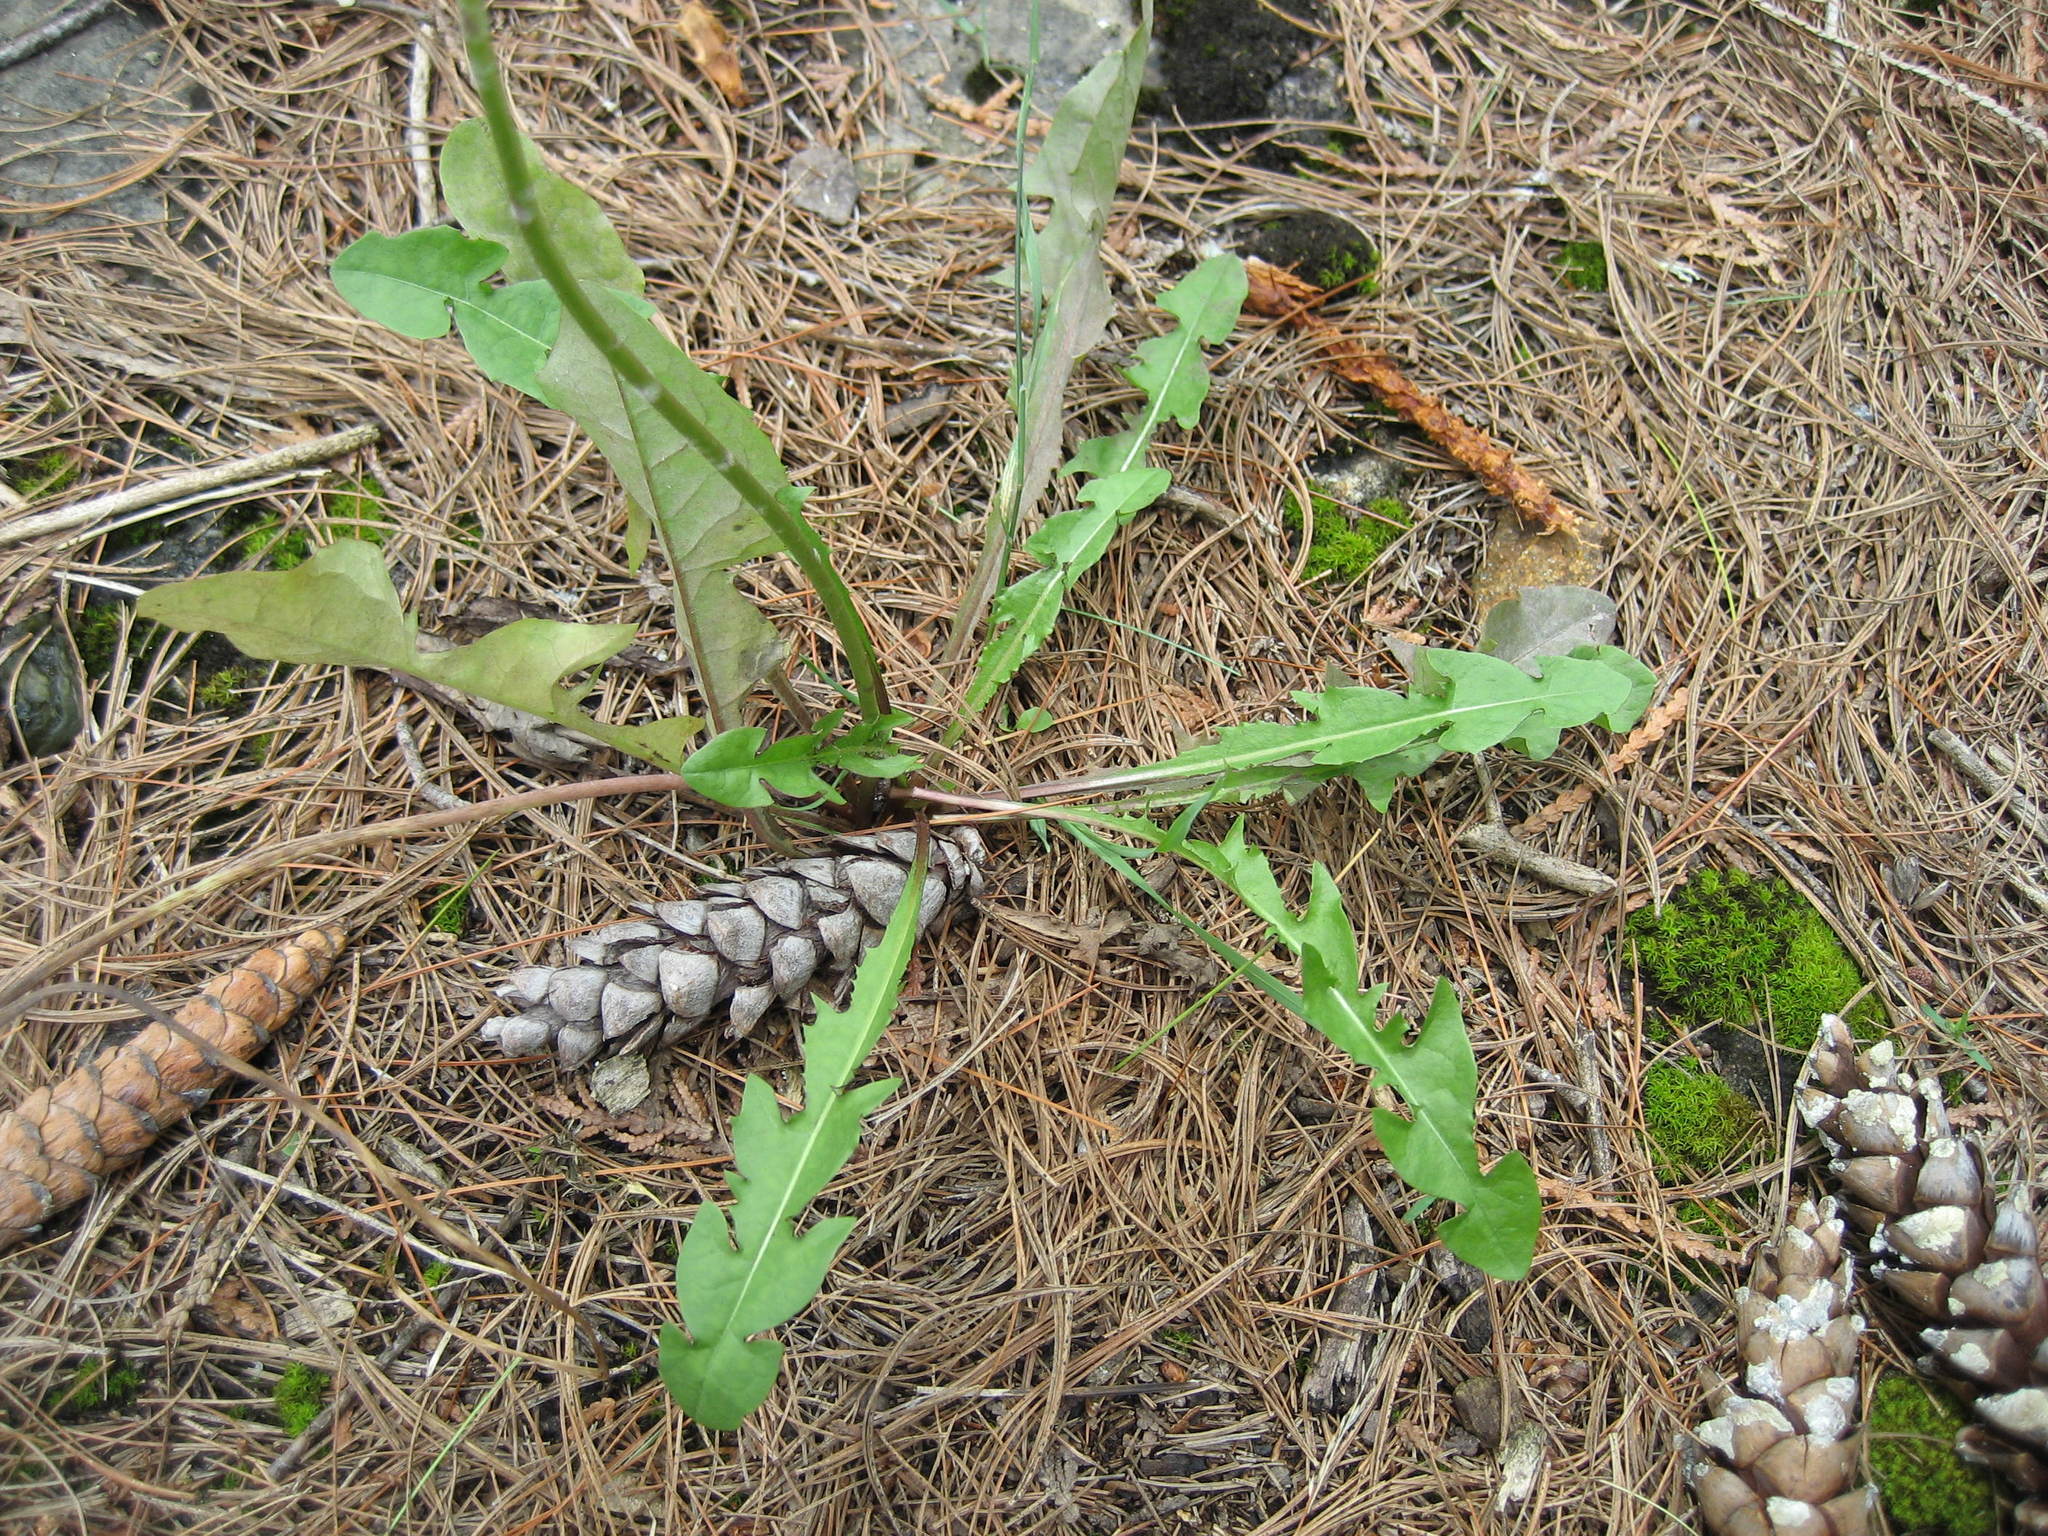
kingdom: Plantae
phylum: Tracheophyta
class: Magnoliopsida
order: Asterales
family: Asteraceae
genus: Taraxacum
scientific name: Taraxacum erythrospermum
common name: Rock dandelion
